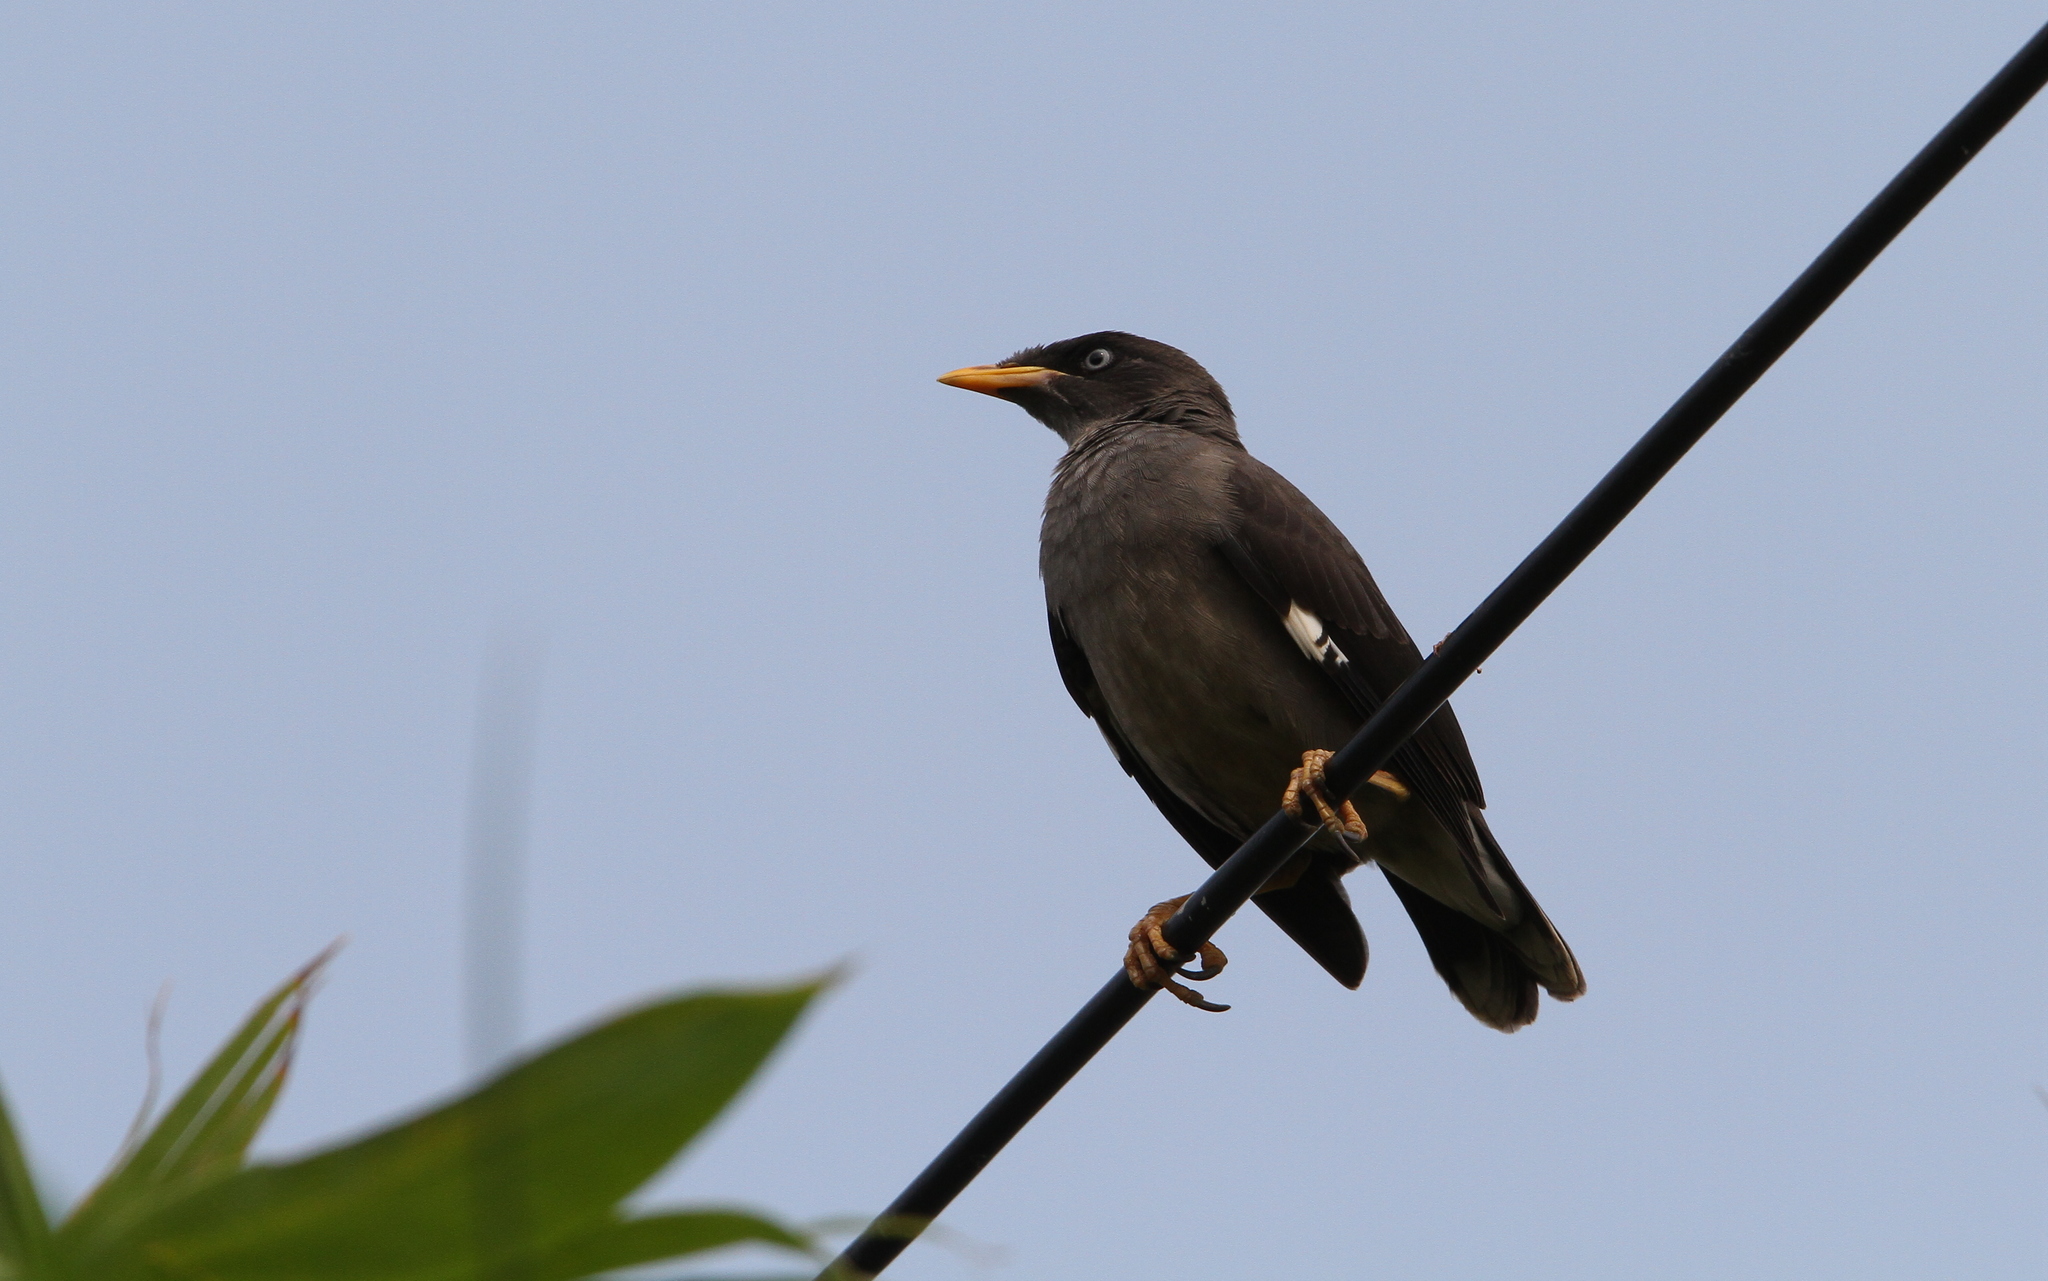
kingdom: Animalia
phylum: Chordata
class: Aves
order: Passeriformes
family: Sturnidae
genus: Acridotheres
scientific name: Acridotheres javanicus
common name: Javan myna
